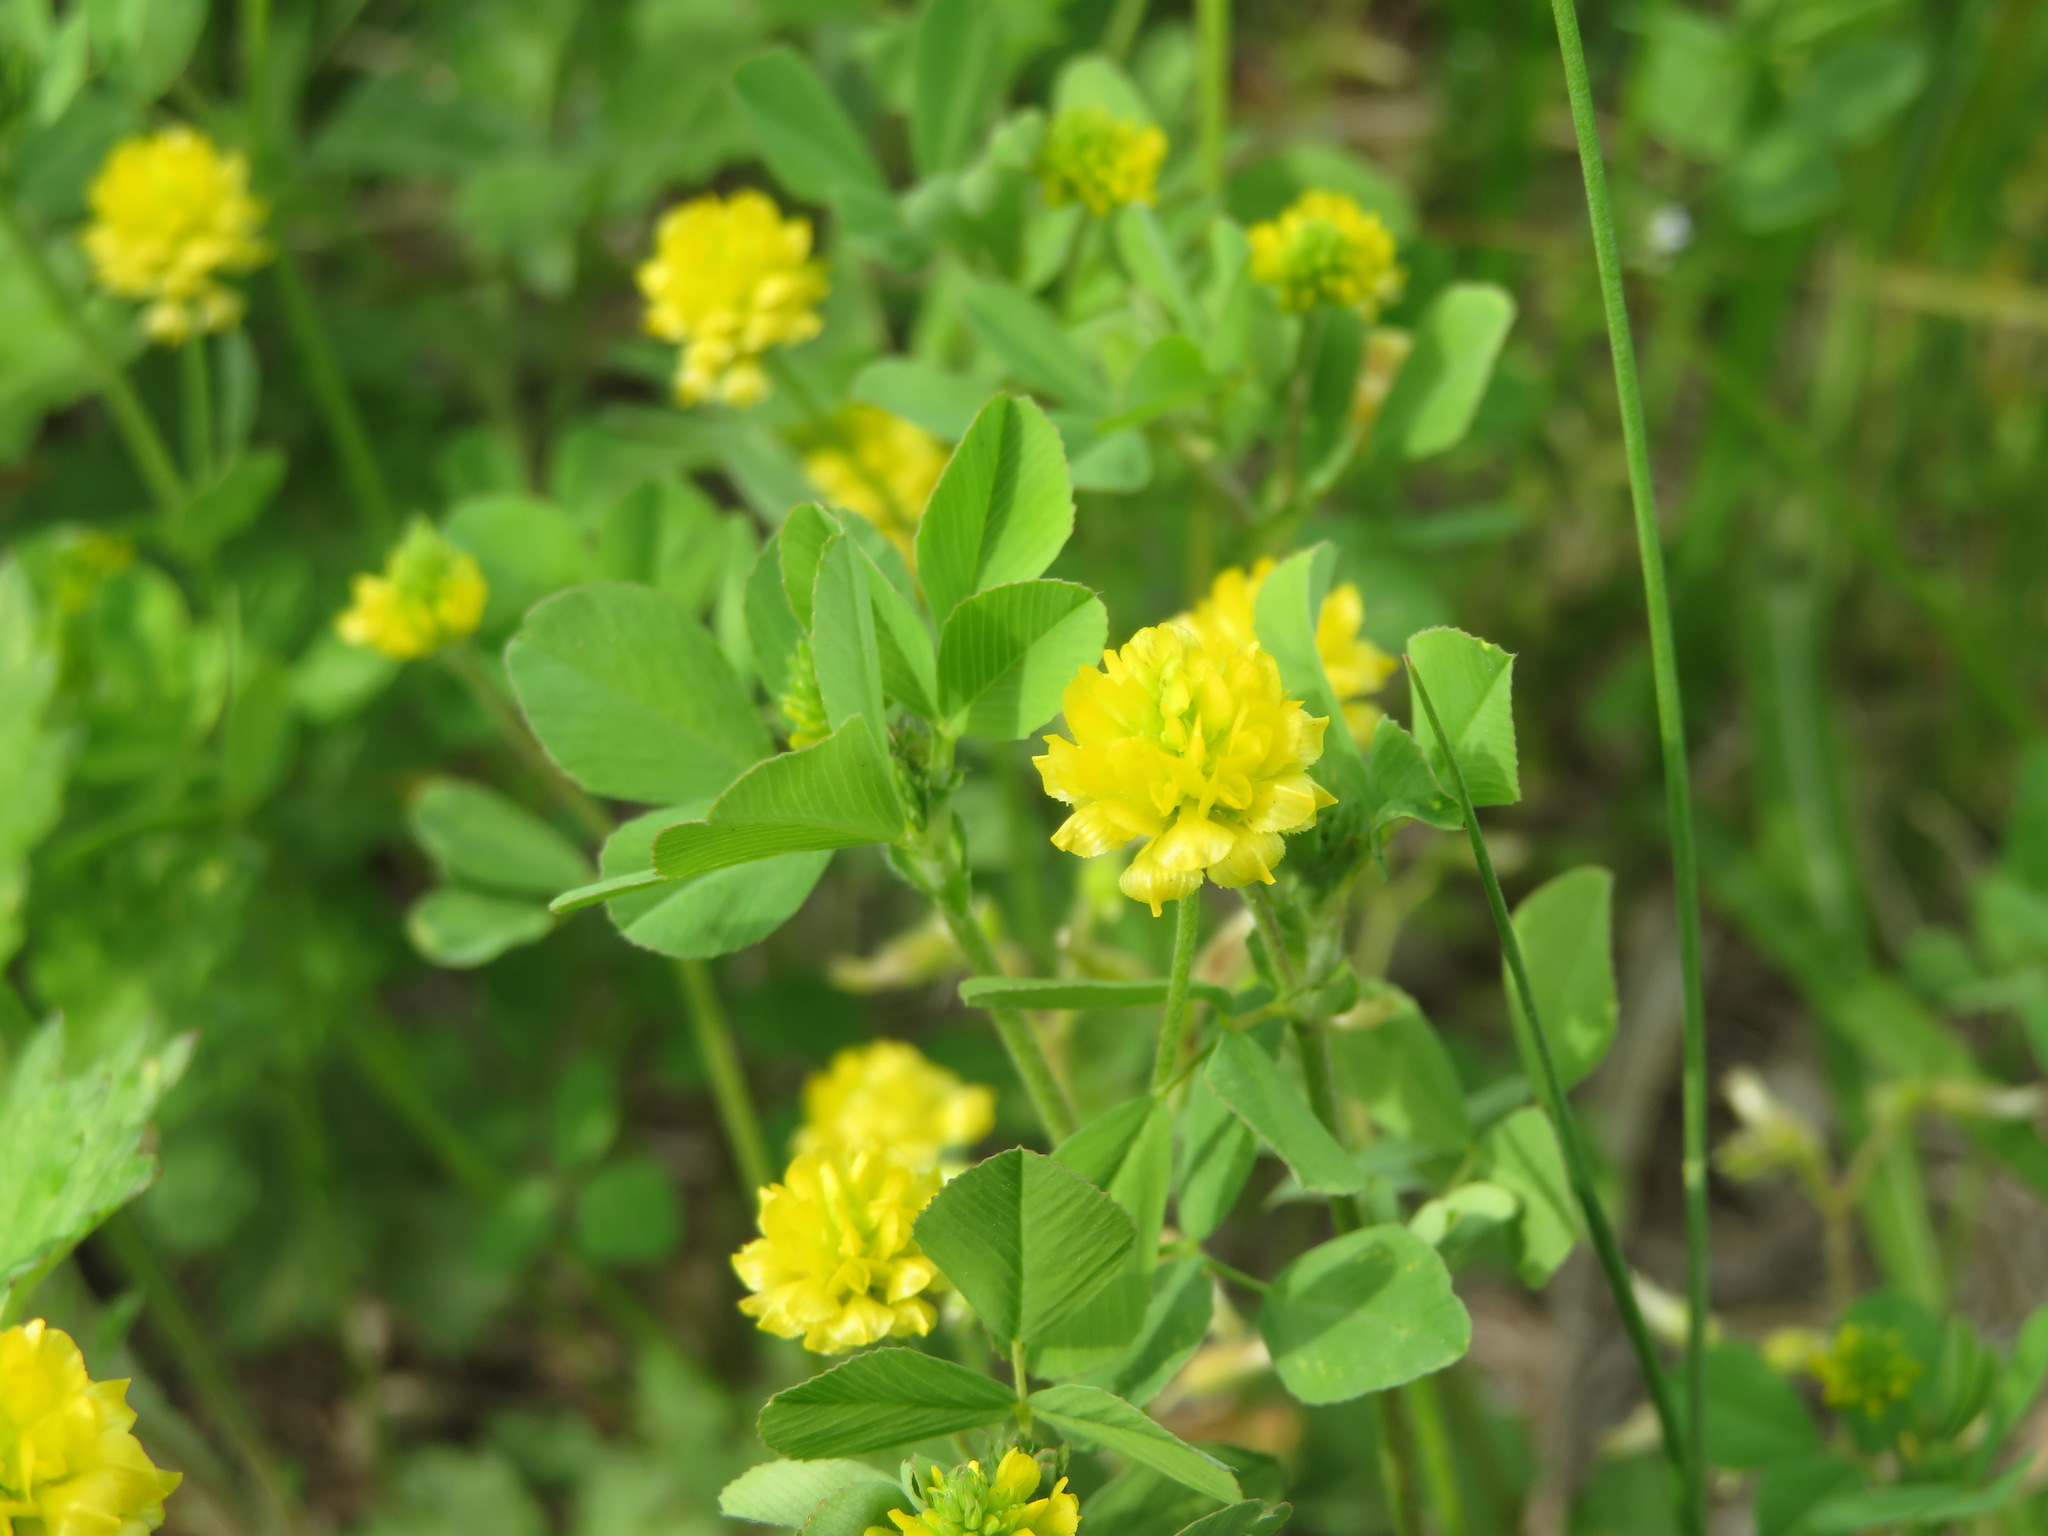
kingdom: Plantae
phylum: Tracheophyta
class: Magnoliopsida
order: Fabales
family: Fabaceae
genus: Trifolium
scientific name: Trifolium campestre
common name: Field clover
